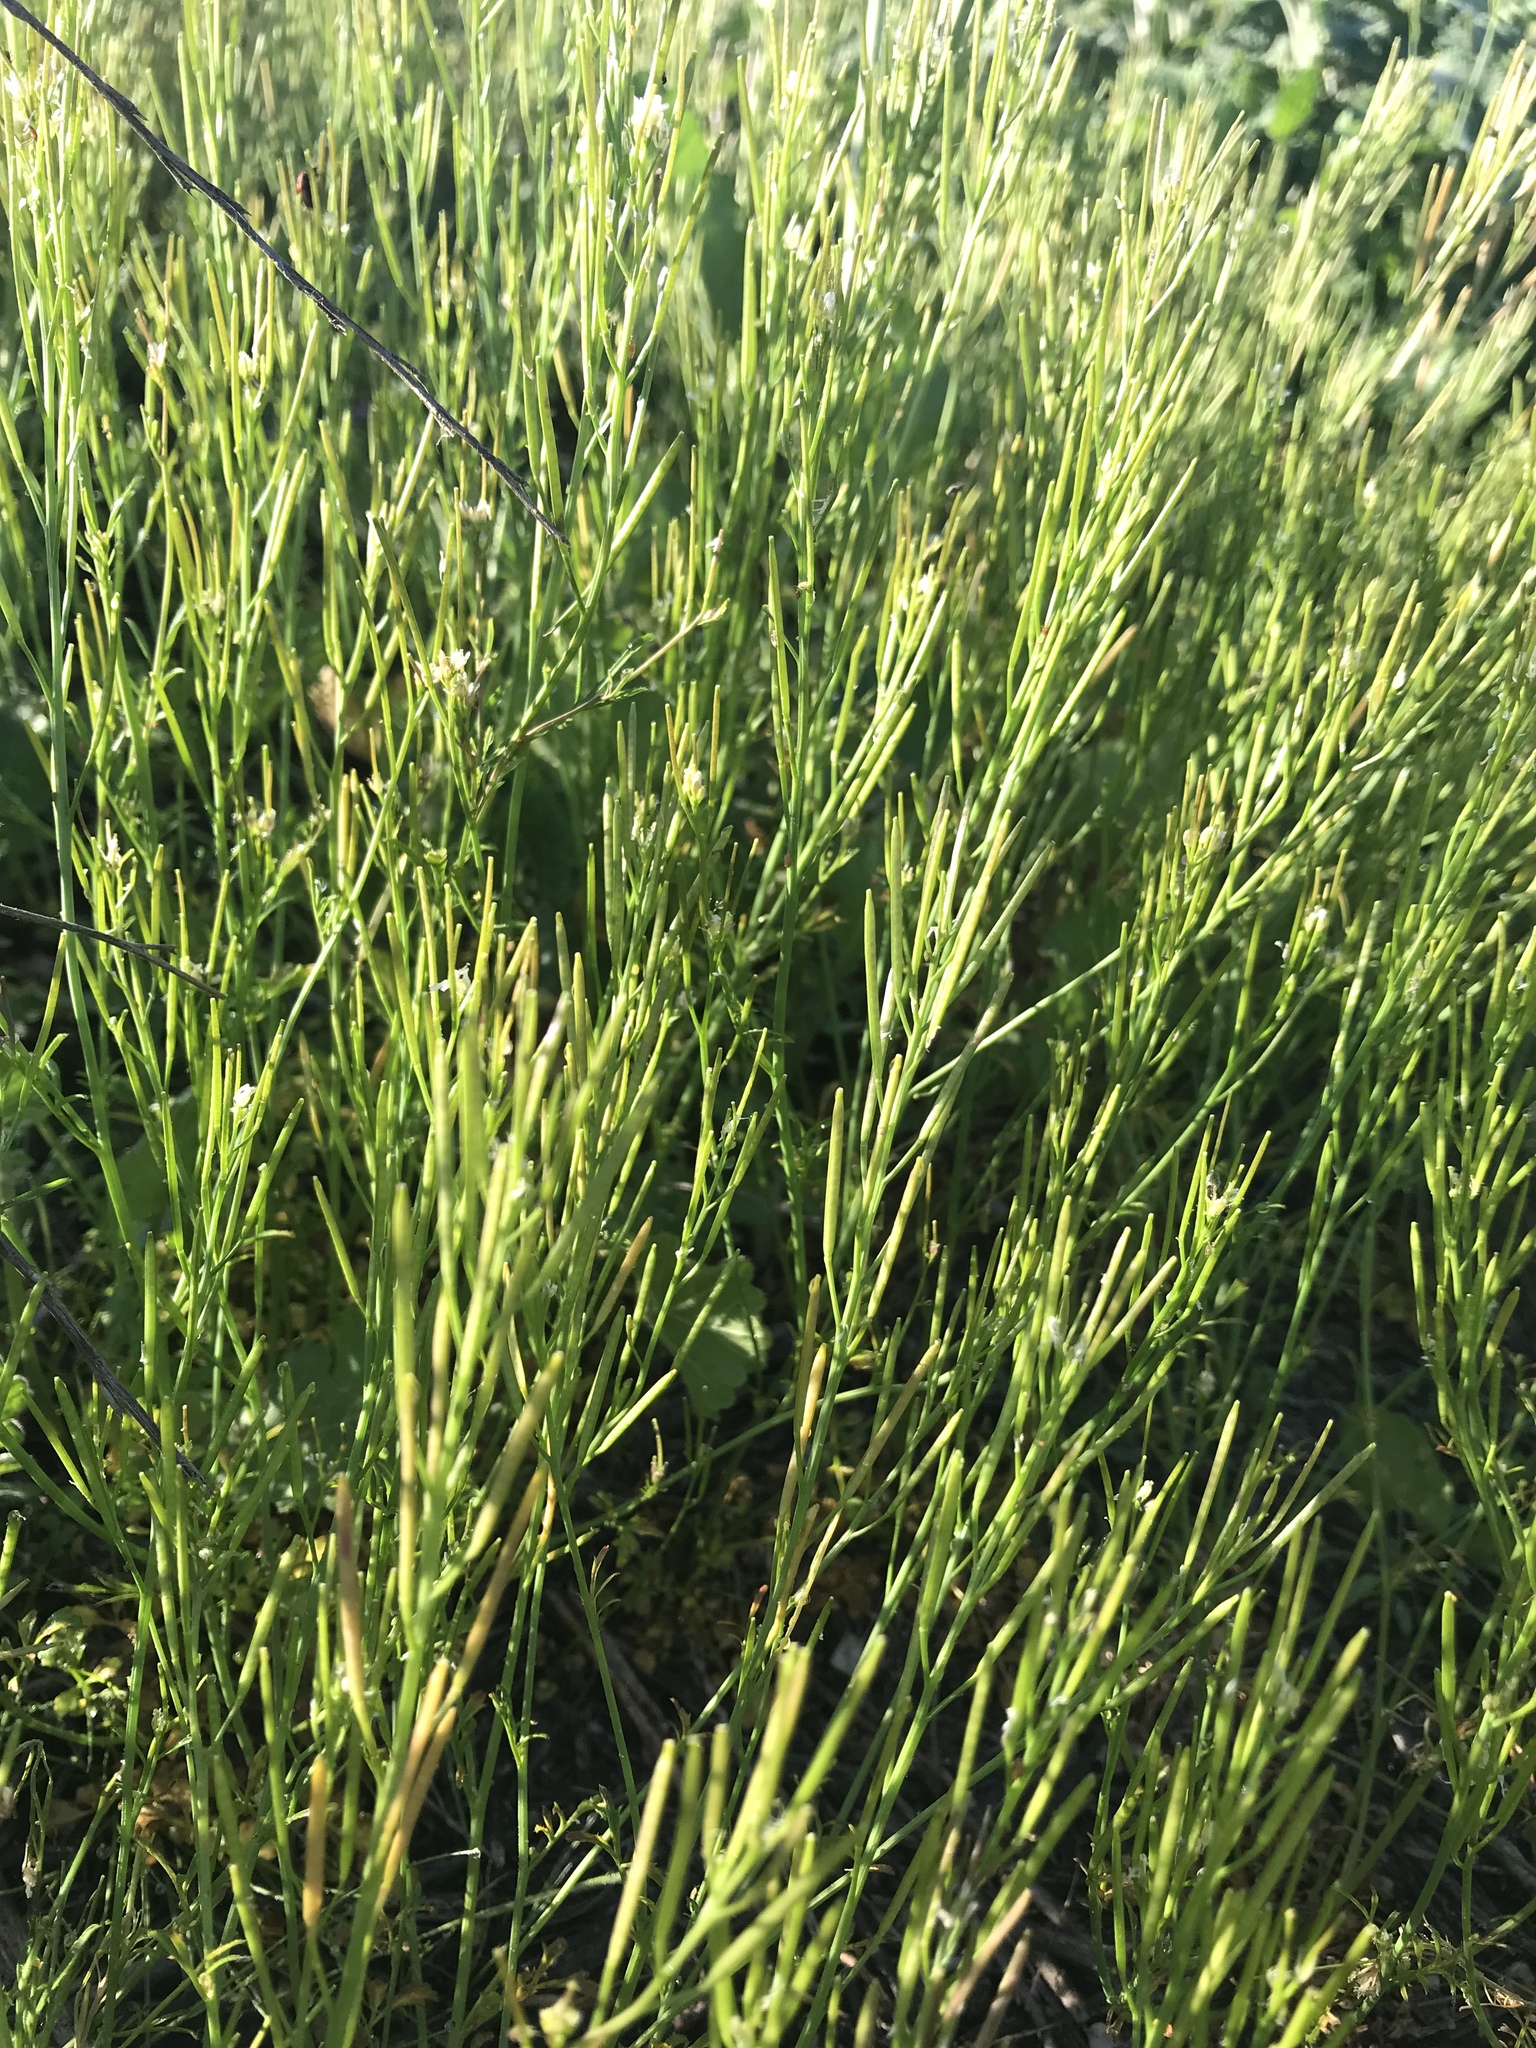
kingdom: Plantae
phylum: Tracheophyta
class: Magnoliopsida
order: Brassicales
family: Brassicaceae
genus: Cardamine
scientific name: Cardamine hirsuta
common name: Hairy bittercress
